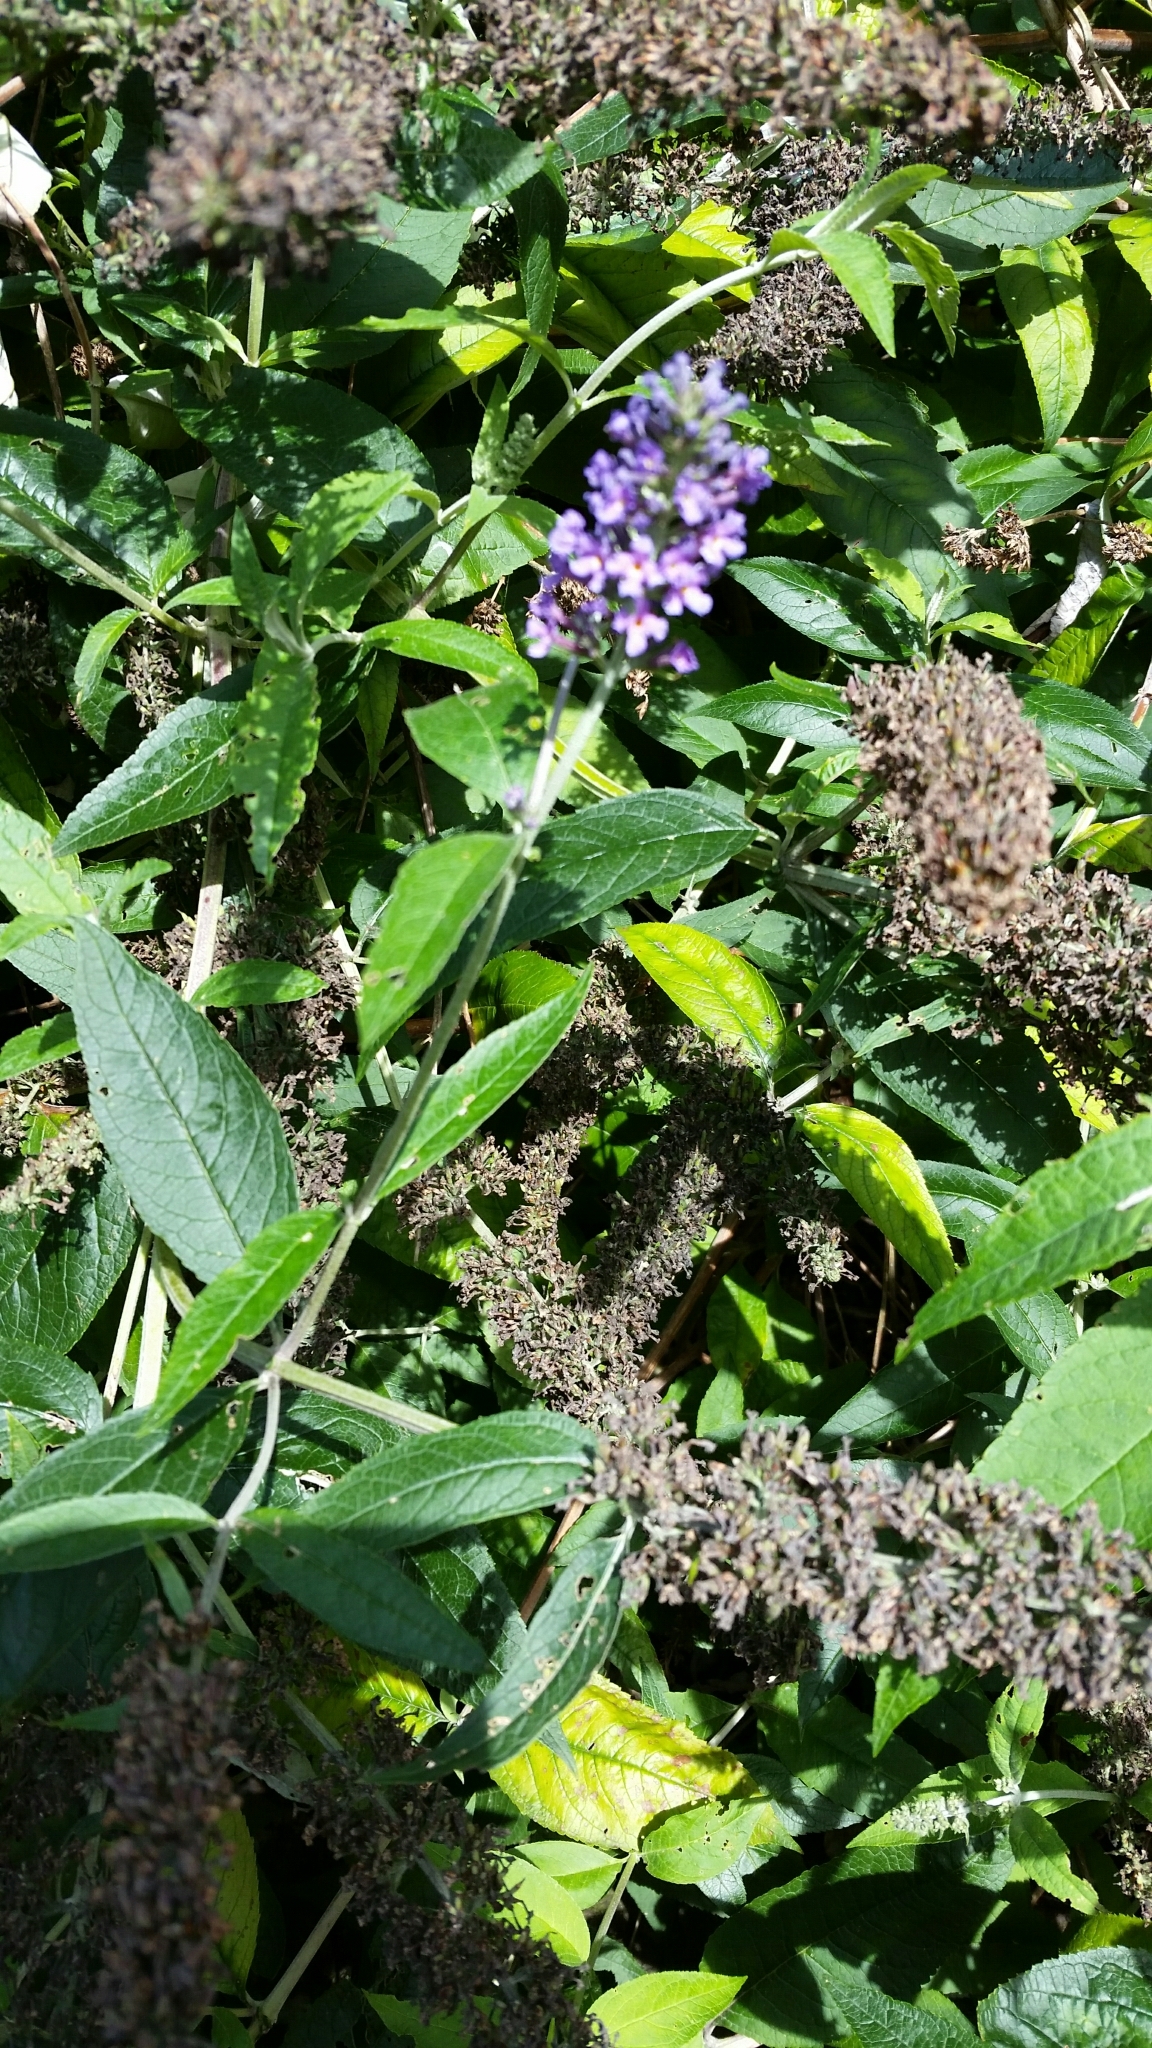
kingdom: Plantae
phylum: Tracheophyta
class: Magnoliopsida
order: Lamiales
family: Scrophulariaceae
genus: Buddleja
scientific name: Buddleja davidii
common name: Butterfly-bush
